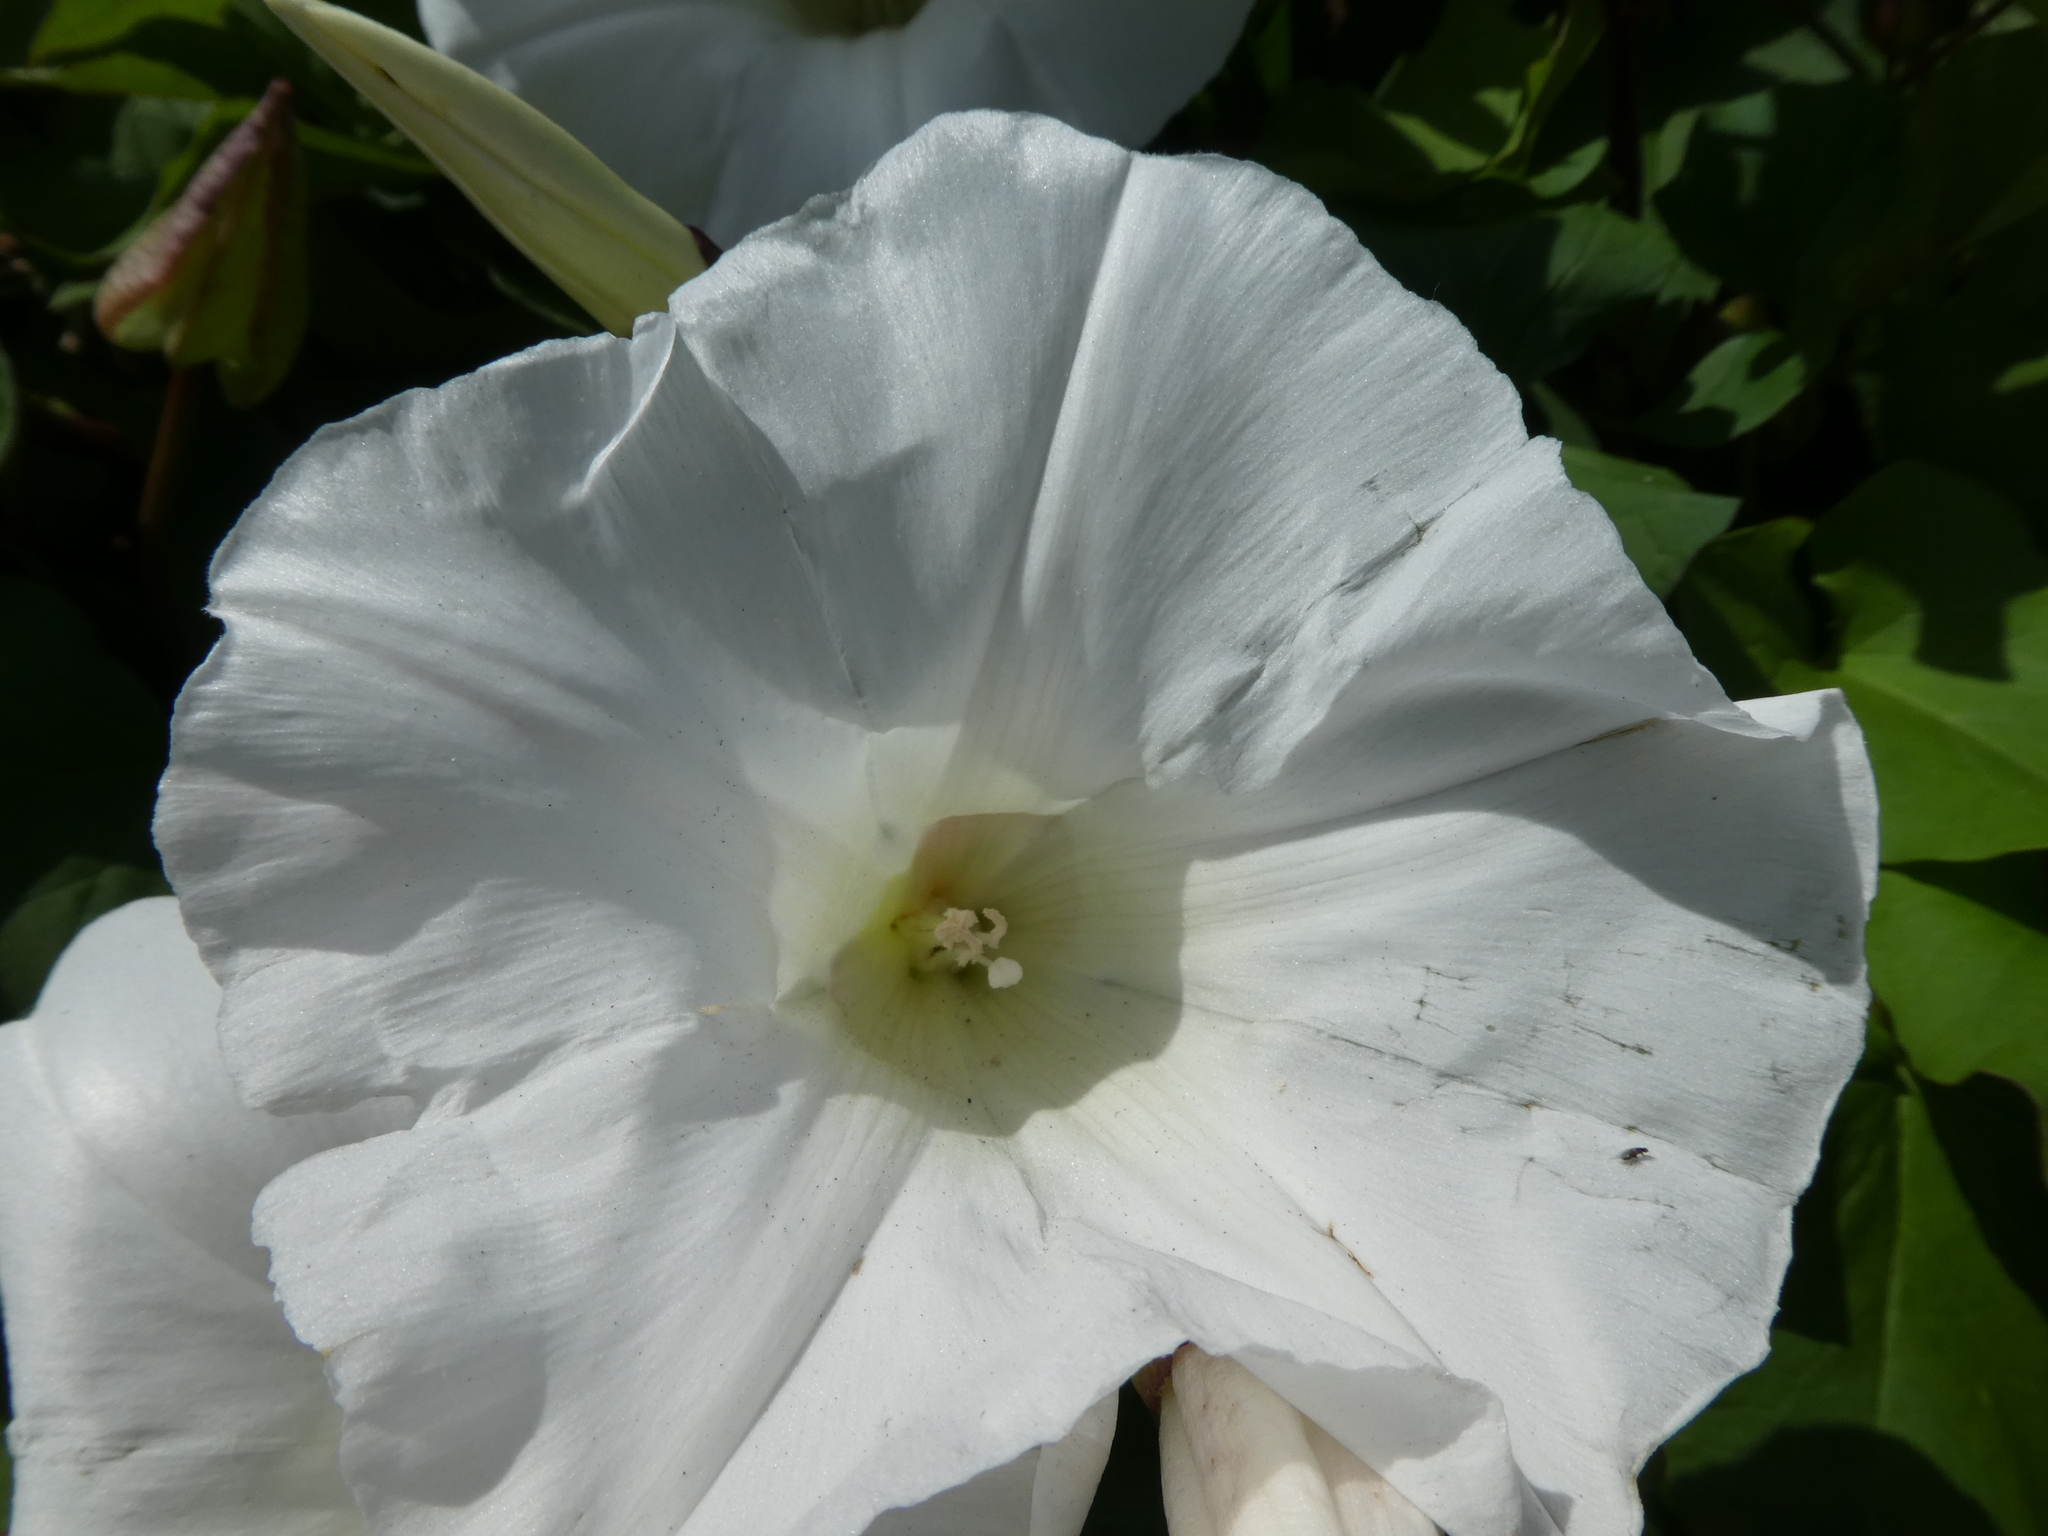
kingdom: Plantae
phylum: Tracheophyta
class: Magnoliopsida
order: Solanales
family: Convolvulaceae
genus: Calystegia
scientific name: Calystegia silvatica
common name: Large bindweed
